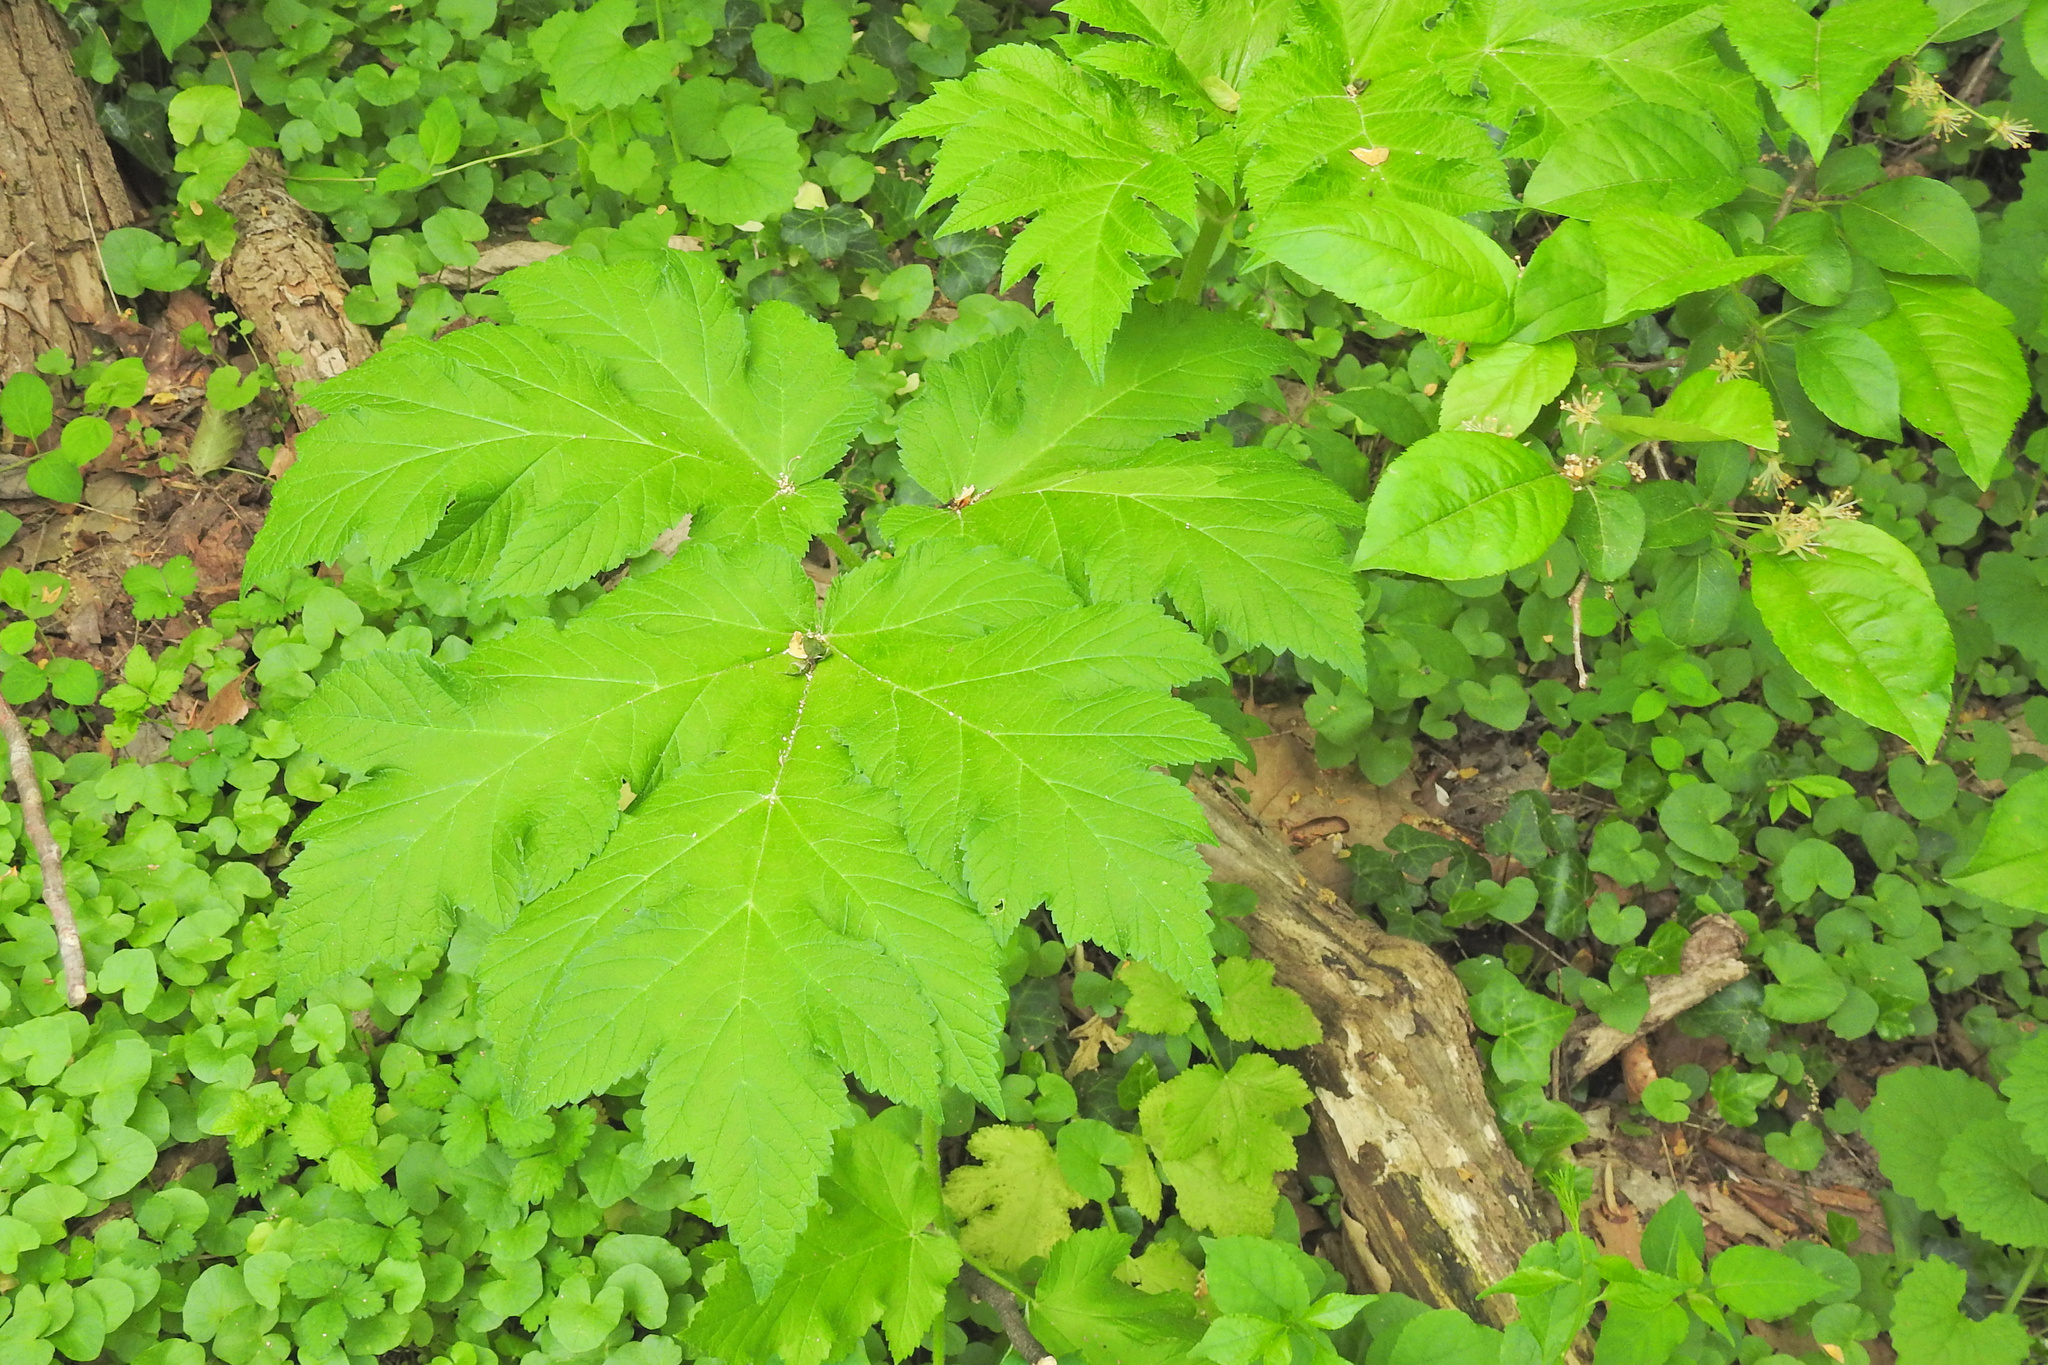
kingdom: Plantae
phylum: Tracheophyta
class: Magnoliopsida
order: Apiales
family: Apiaceae
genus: Heracleum
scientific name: Heracleum maximum
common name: American cow parsnip
